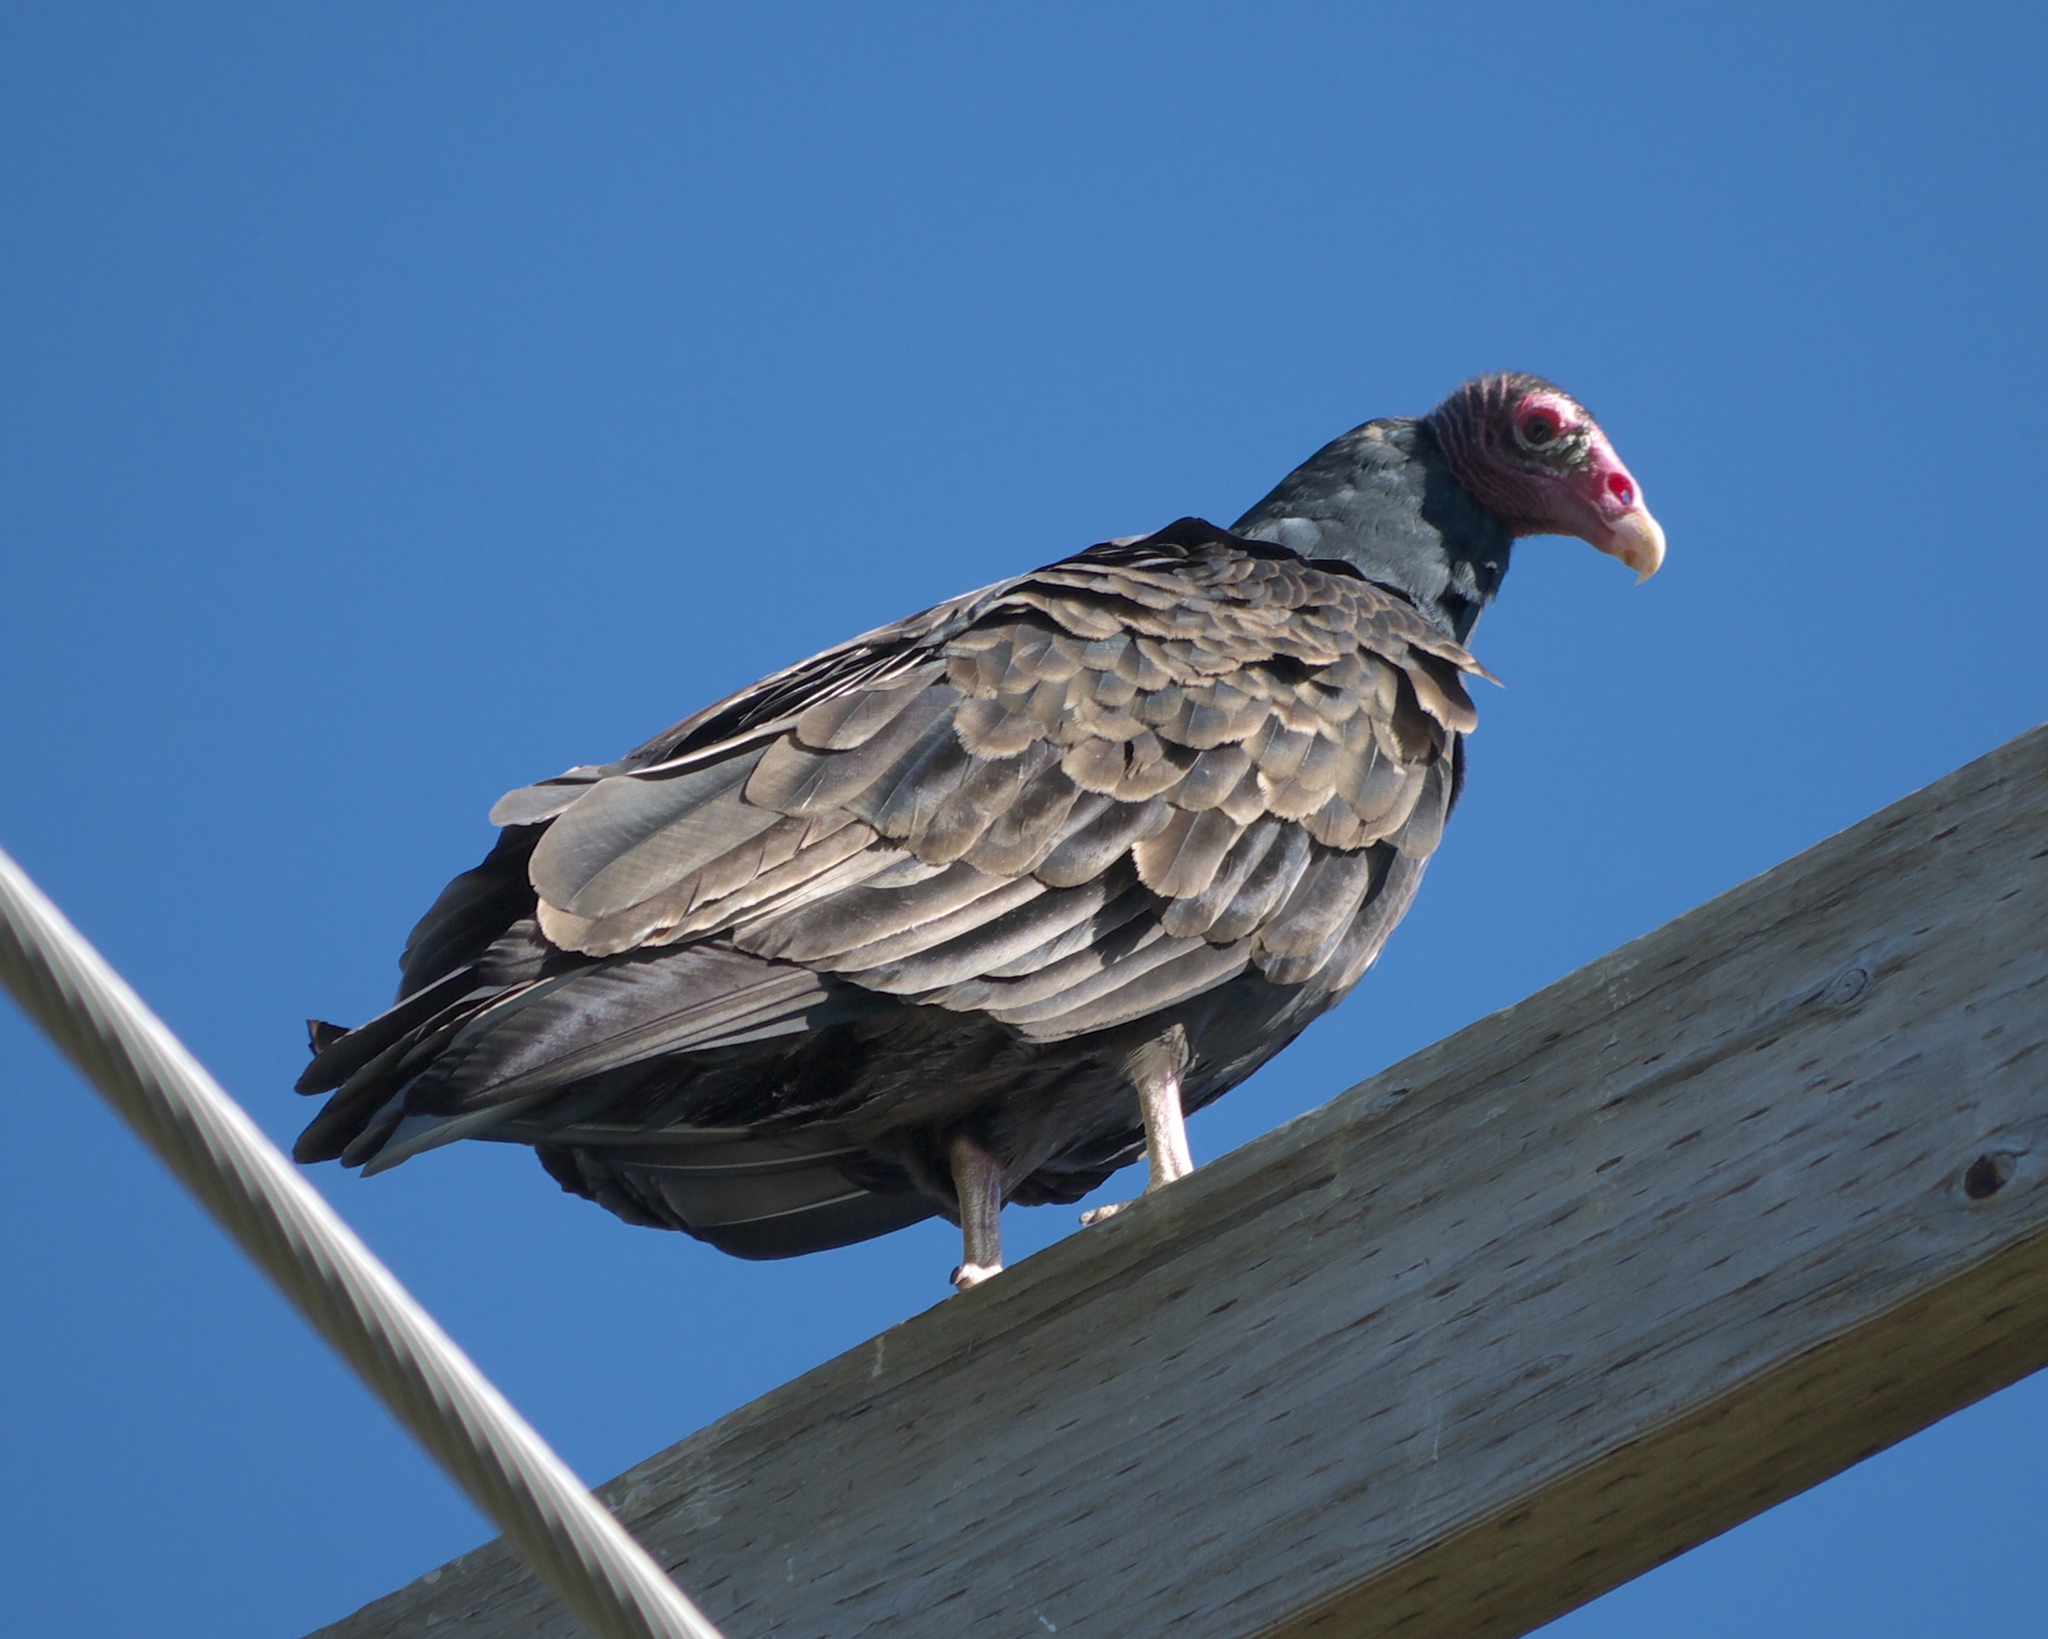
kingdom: Animalia
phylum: Chordata
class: Aves
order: Accipitriformes
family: Cathartidae
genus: Cathartes
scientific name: Cathartes aura
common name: Turkey vulture
